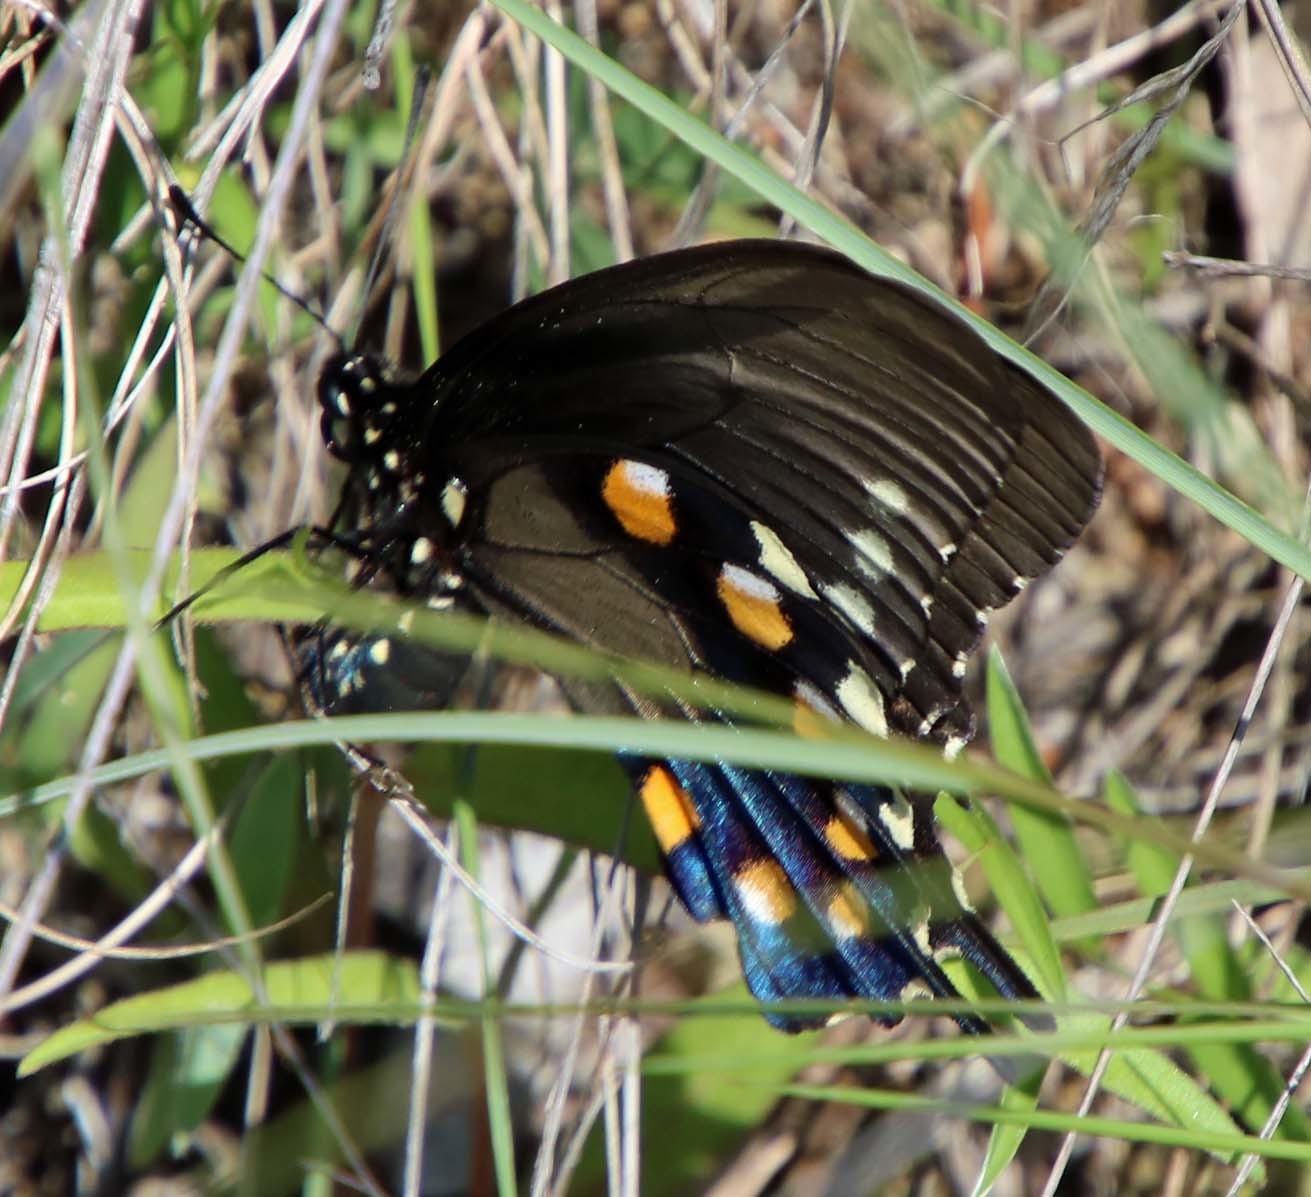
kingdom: Animalia
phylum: Arthropoda
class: Insecta
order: Lepidoptera
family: Papilionidae
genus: Battus
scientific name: Battus philenor
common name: Pipevine swallowtail
